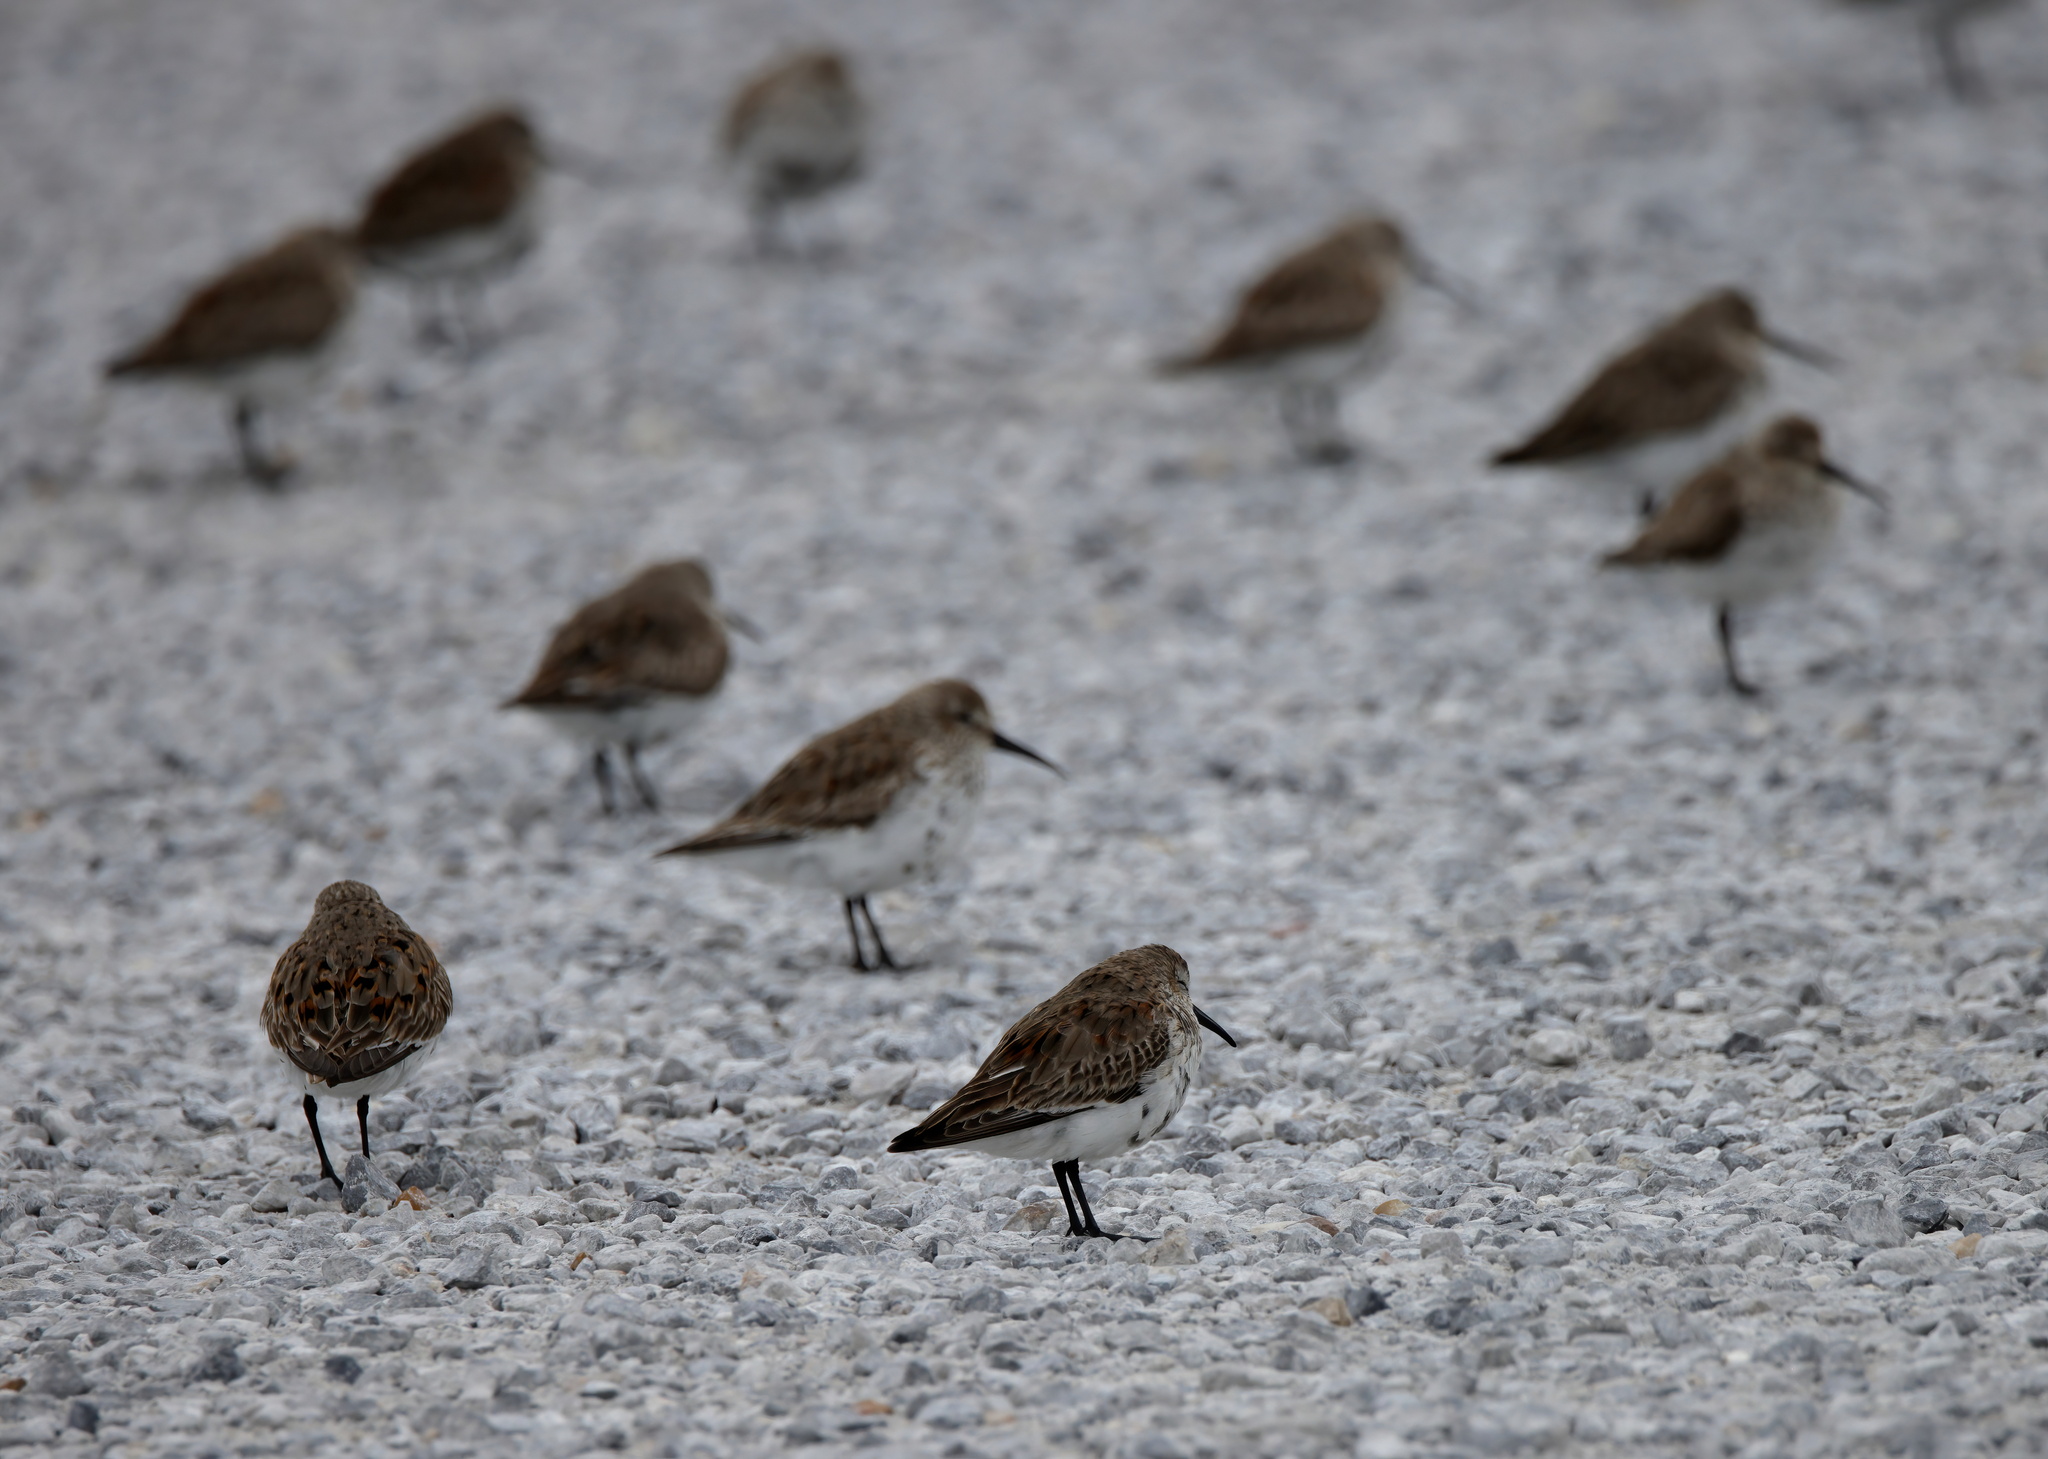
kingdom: Animalia
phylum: Chordata
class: Aves
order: Charadriiformes
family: Scolopacidae
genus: Calidris
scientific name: Calidris alpina
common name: Dunlin
